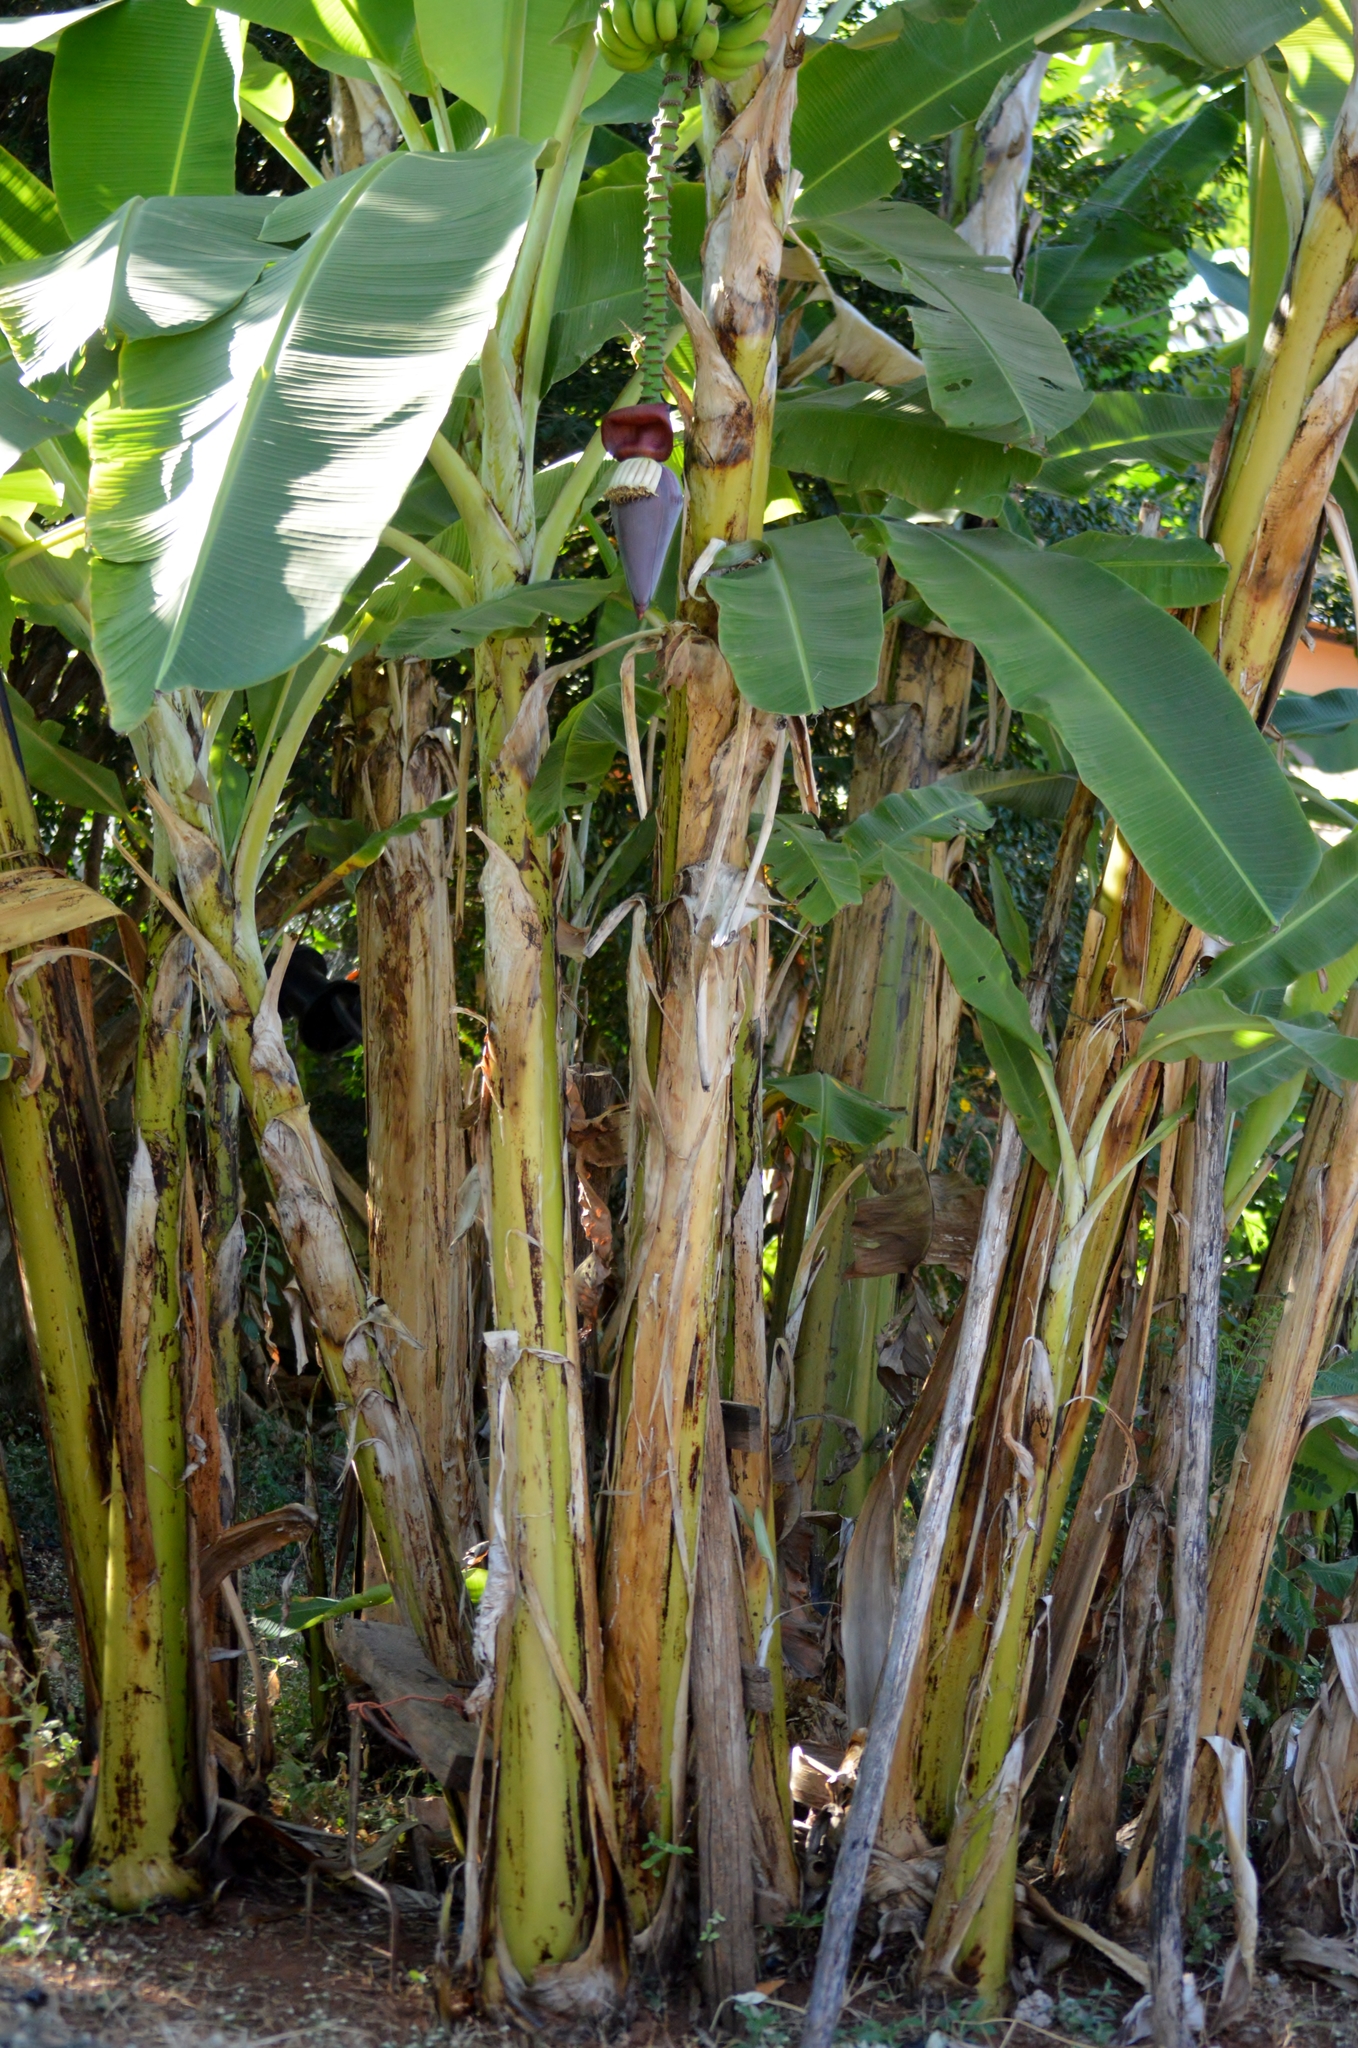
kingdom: Plantae
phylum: Tracheophyta
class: Liliopsida
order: Zingiberales
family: Musaceae
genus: Musa
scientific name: Musa paradisiaca
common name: French plantain
